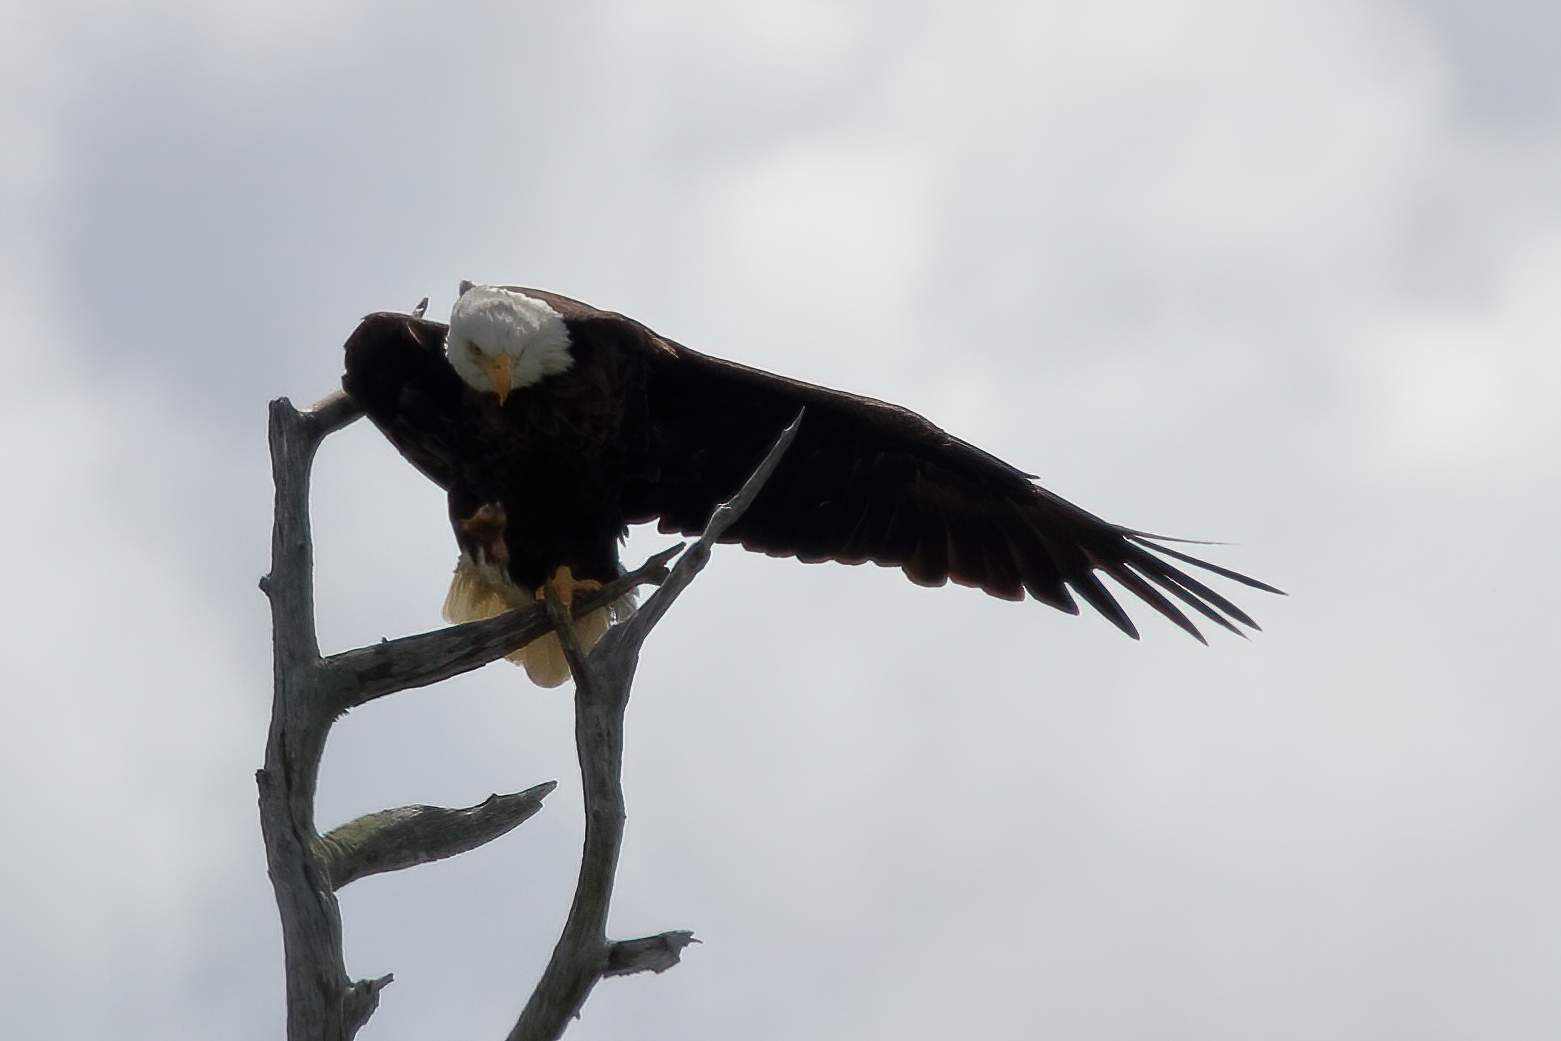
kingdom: Animalia
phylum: Chordata
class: Aves
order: Accipitriformes
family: Accipitridae
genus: Haliaeetus
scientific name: Haliaeetus leucocephalus
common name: Bald eagle
